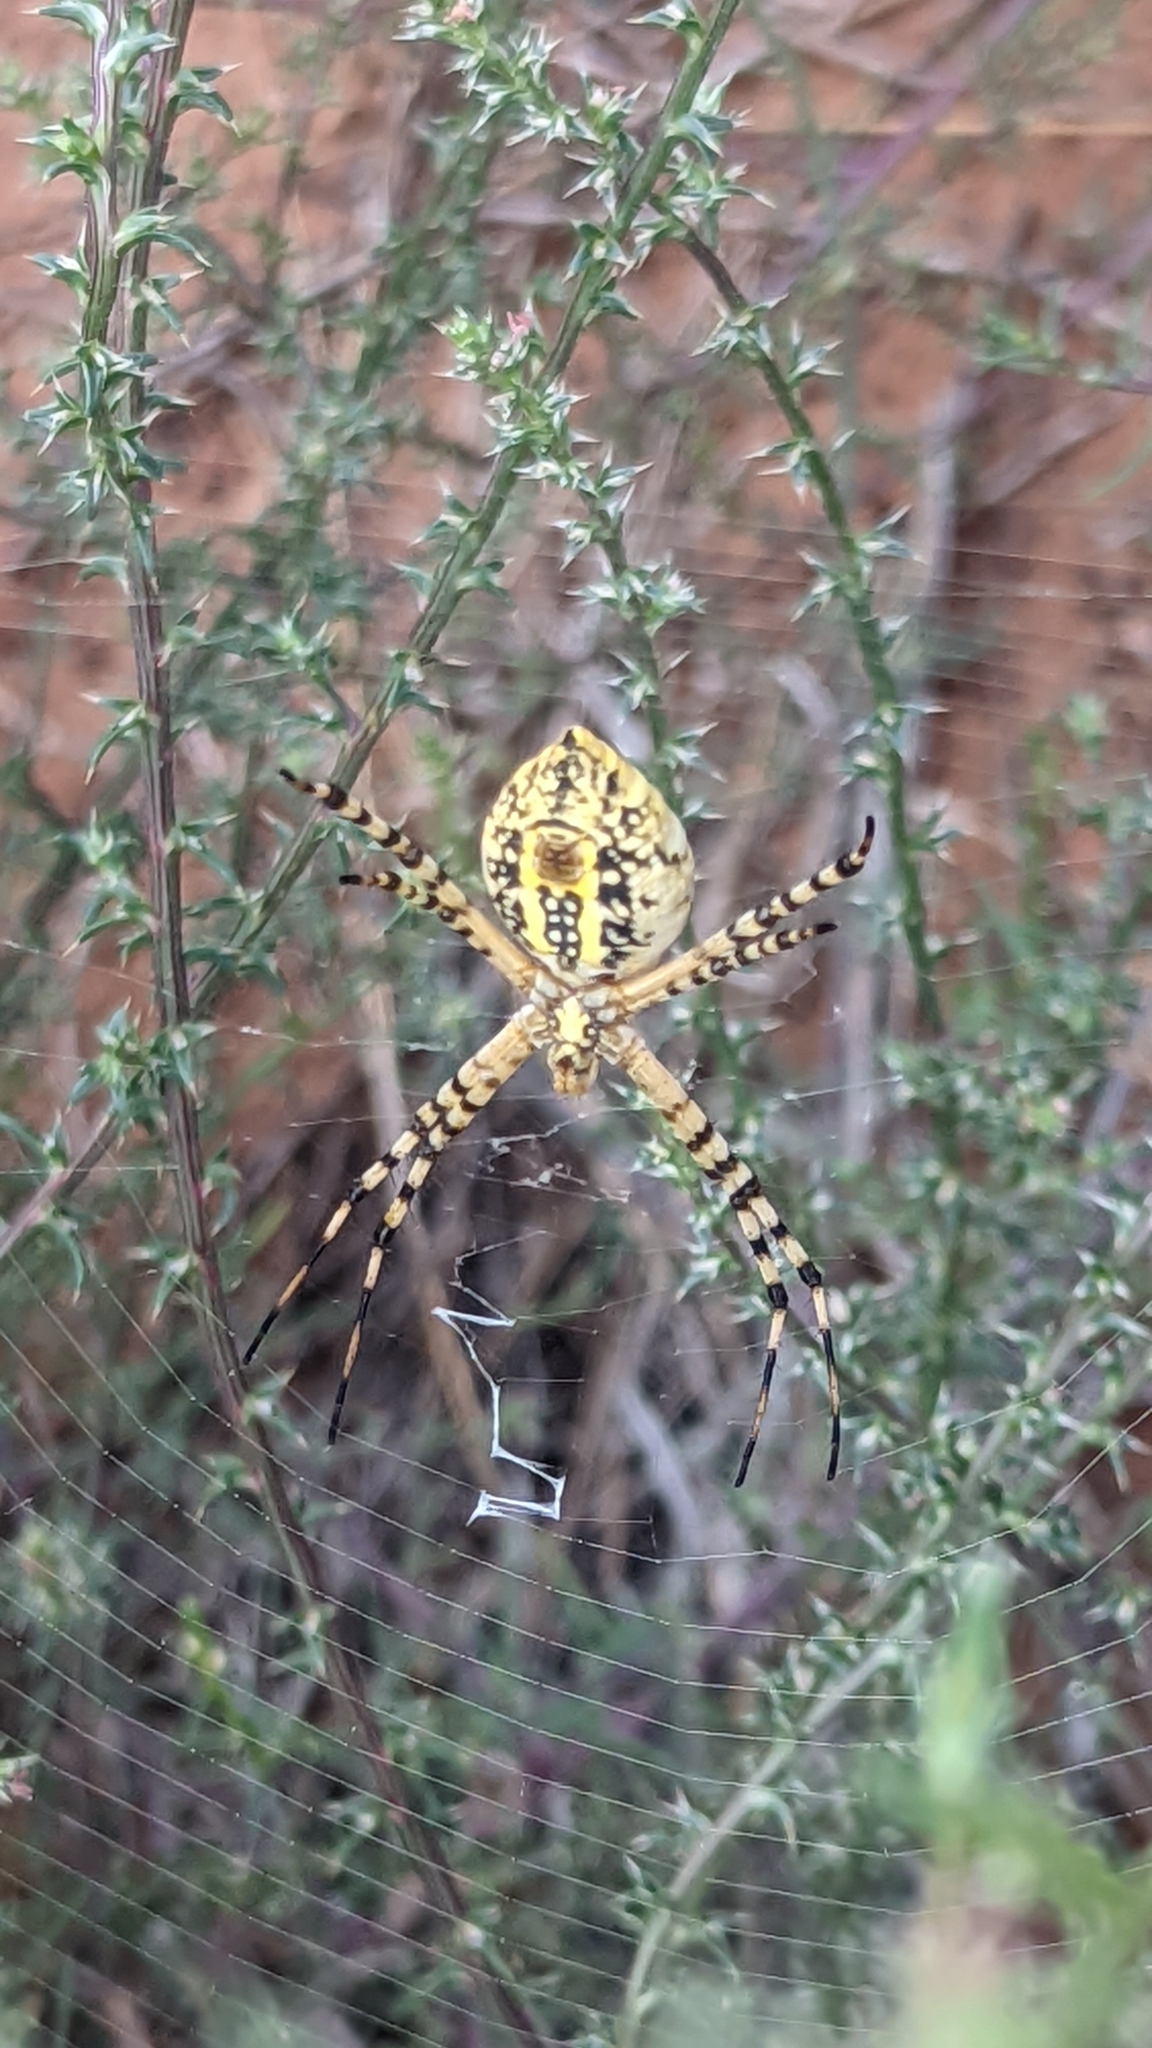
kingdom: Animalia
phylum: Arthropoda
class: Arachnida
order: Araneae
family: Araneidae
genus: Argiope
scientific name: Argiope trifasciata
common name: Banded garden spider
